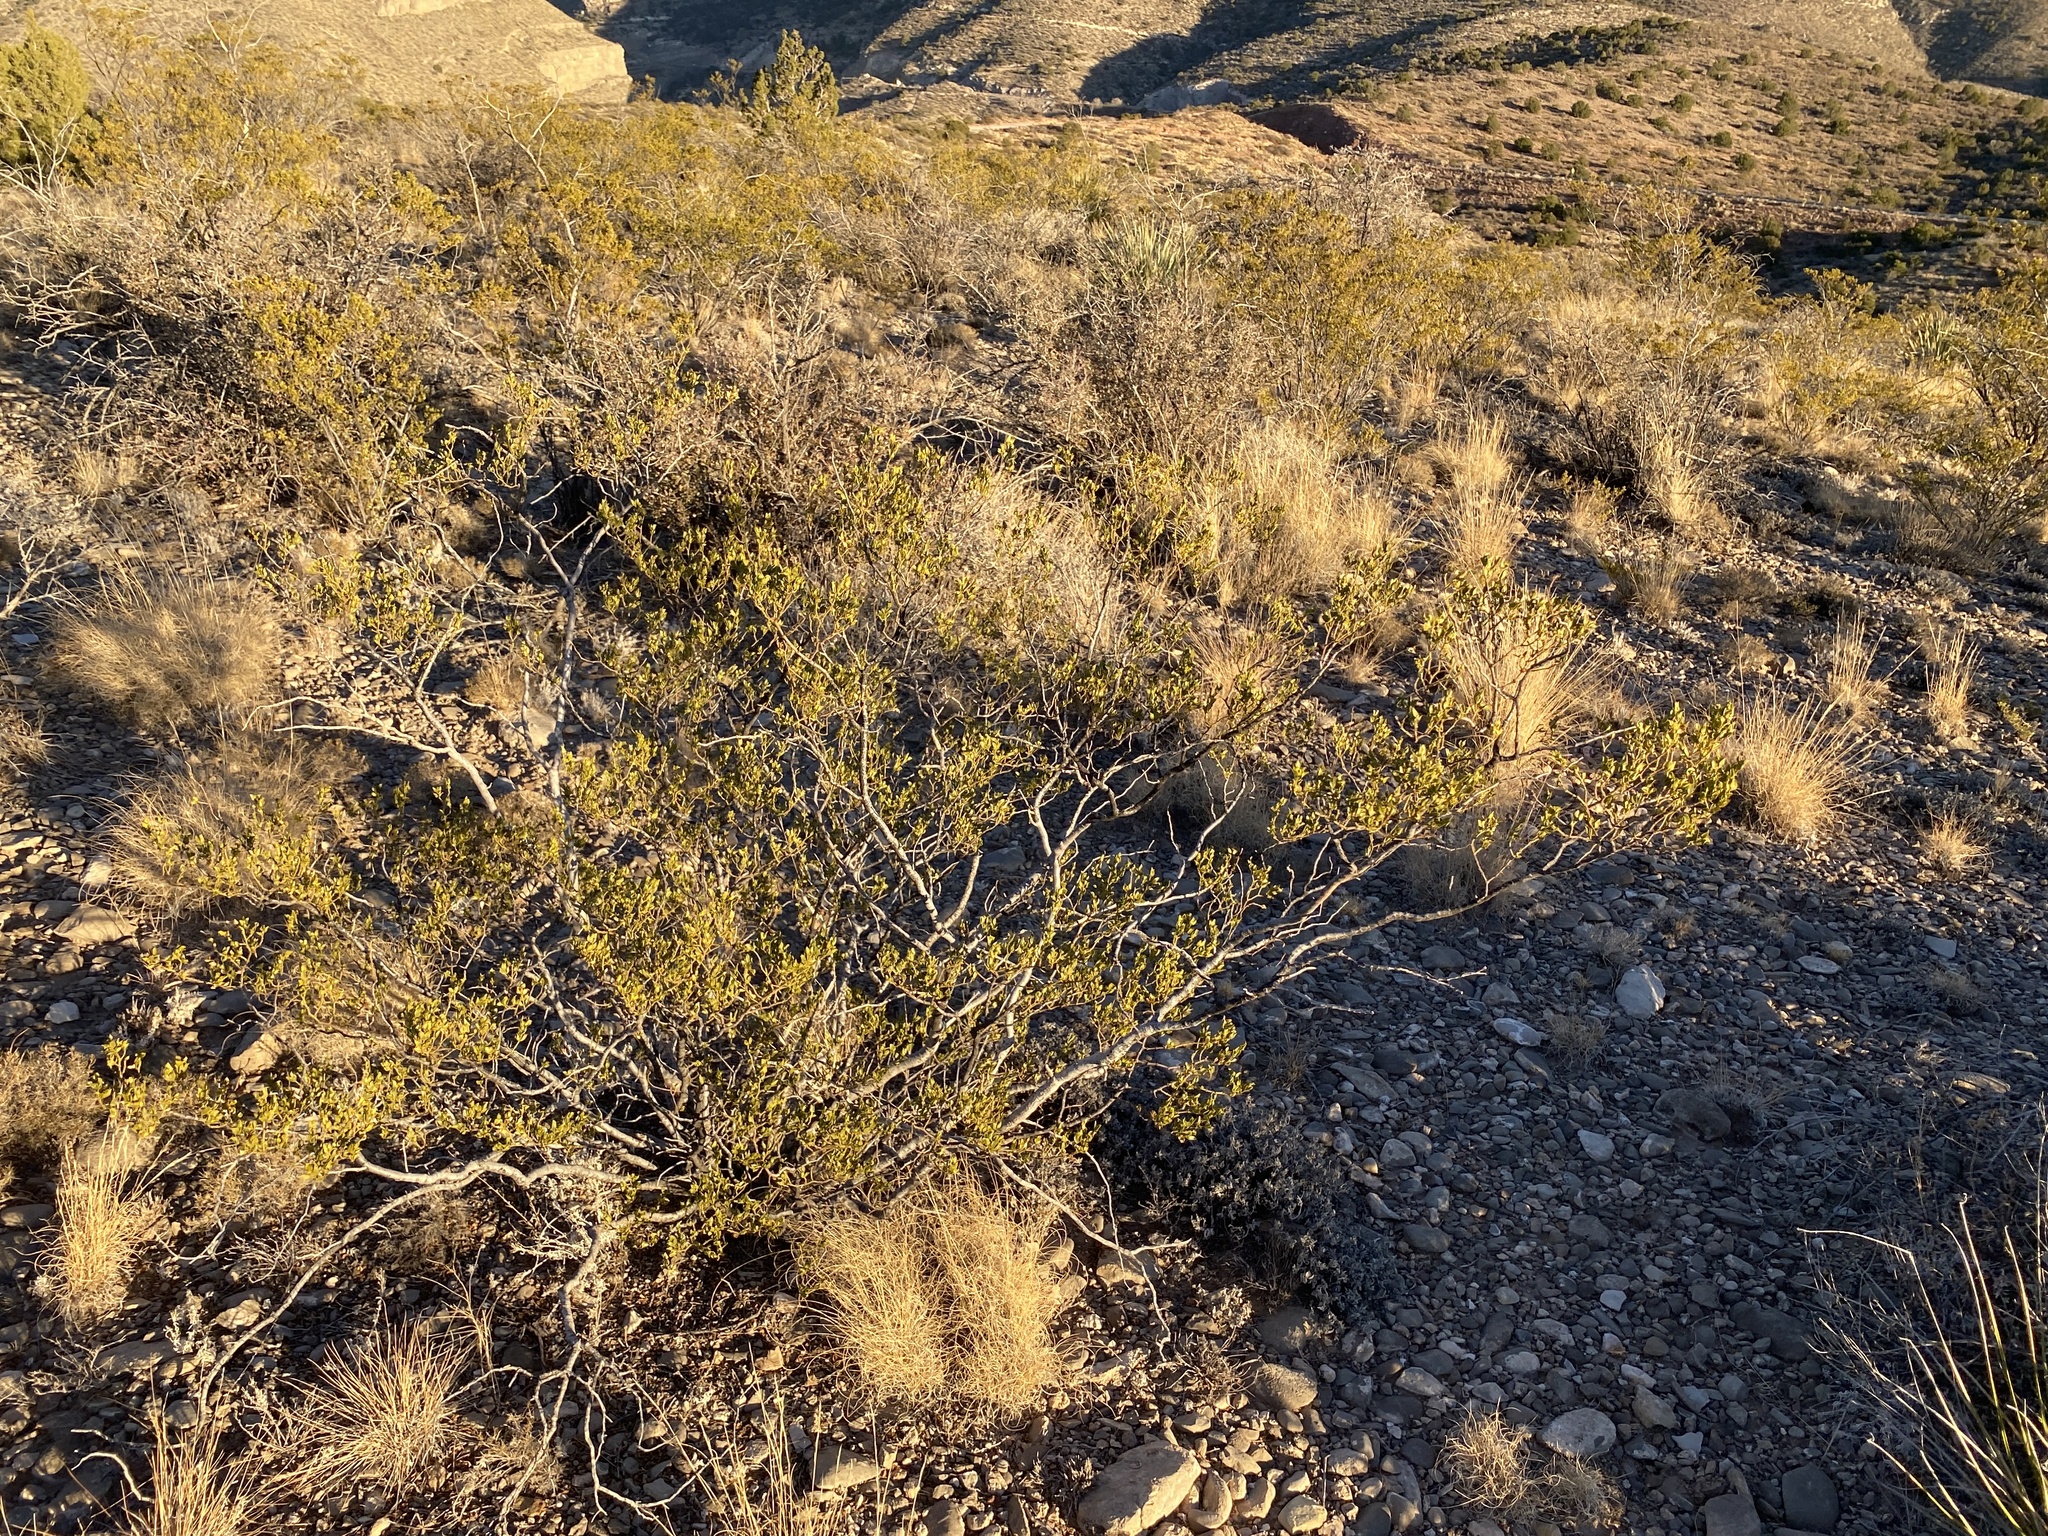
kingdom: Plantae
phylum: Tracheophyta
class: Magnoliopsida
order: Zygophyllales
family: Zygophyllaceae
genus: Larrea
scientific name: Larrea tridentata
